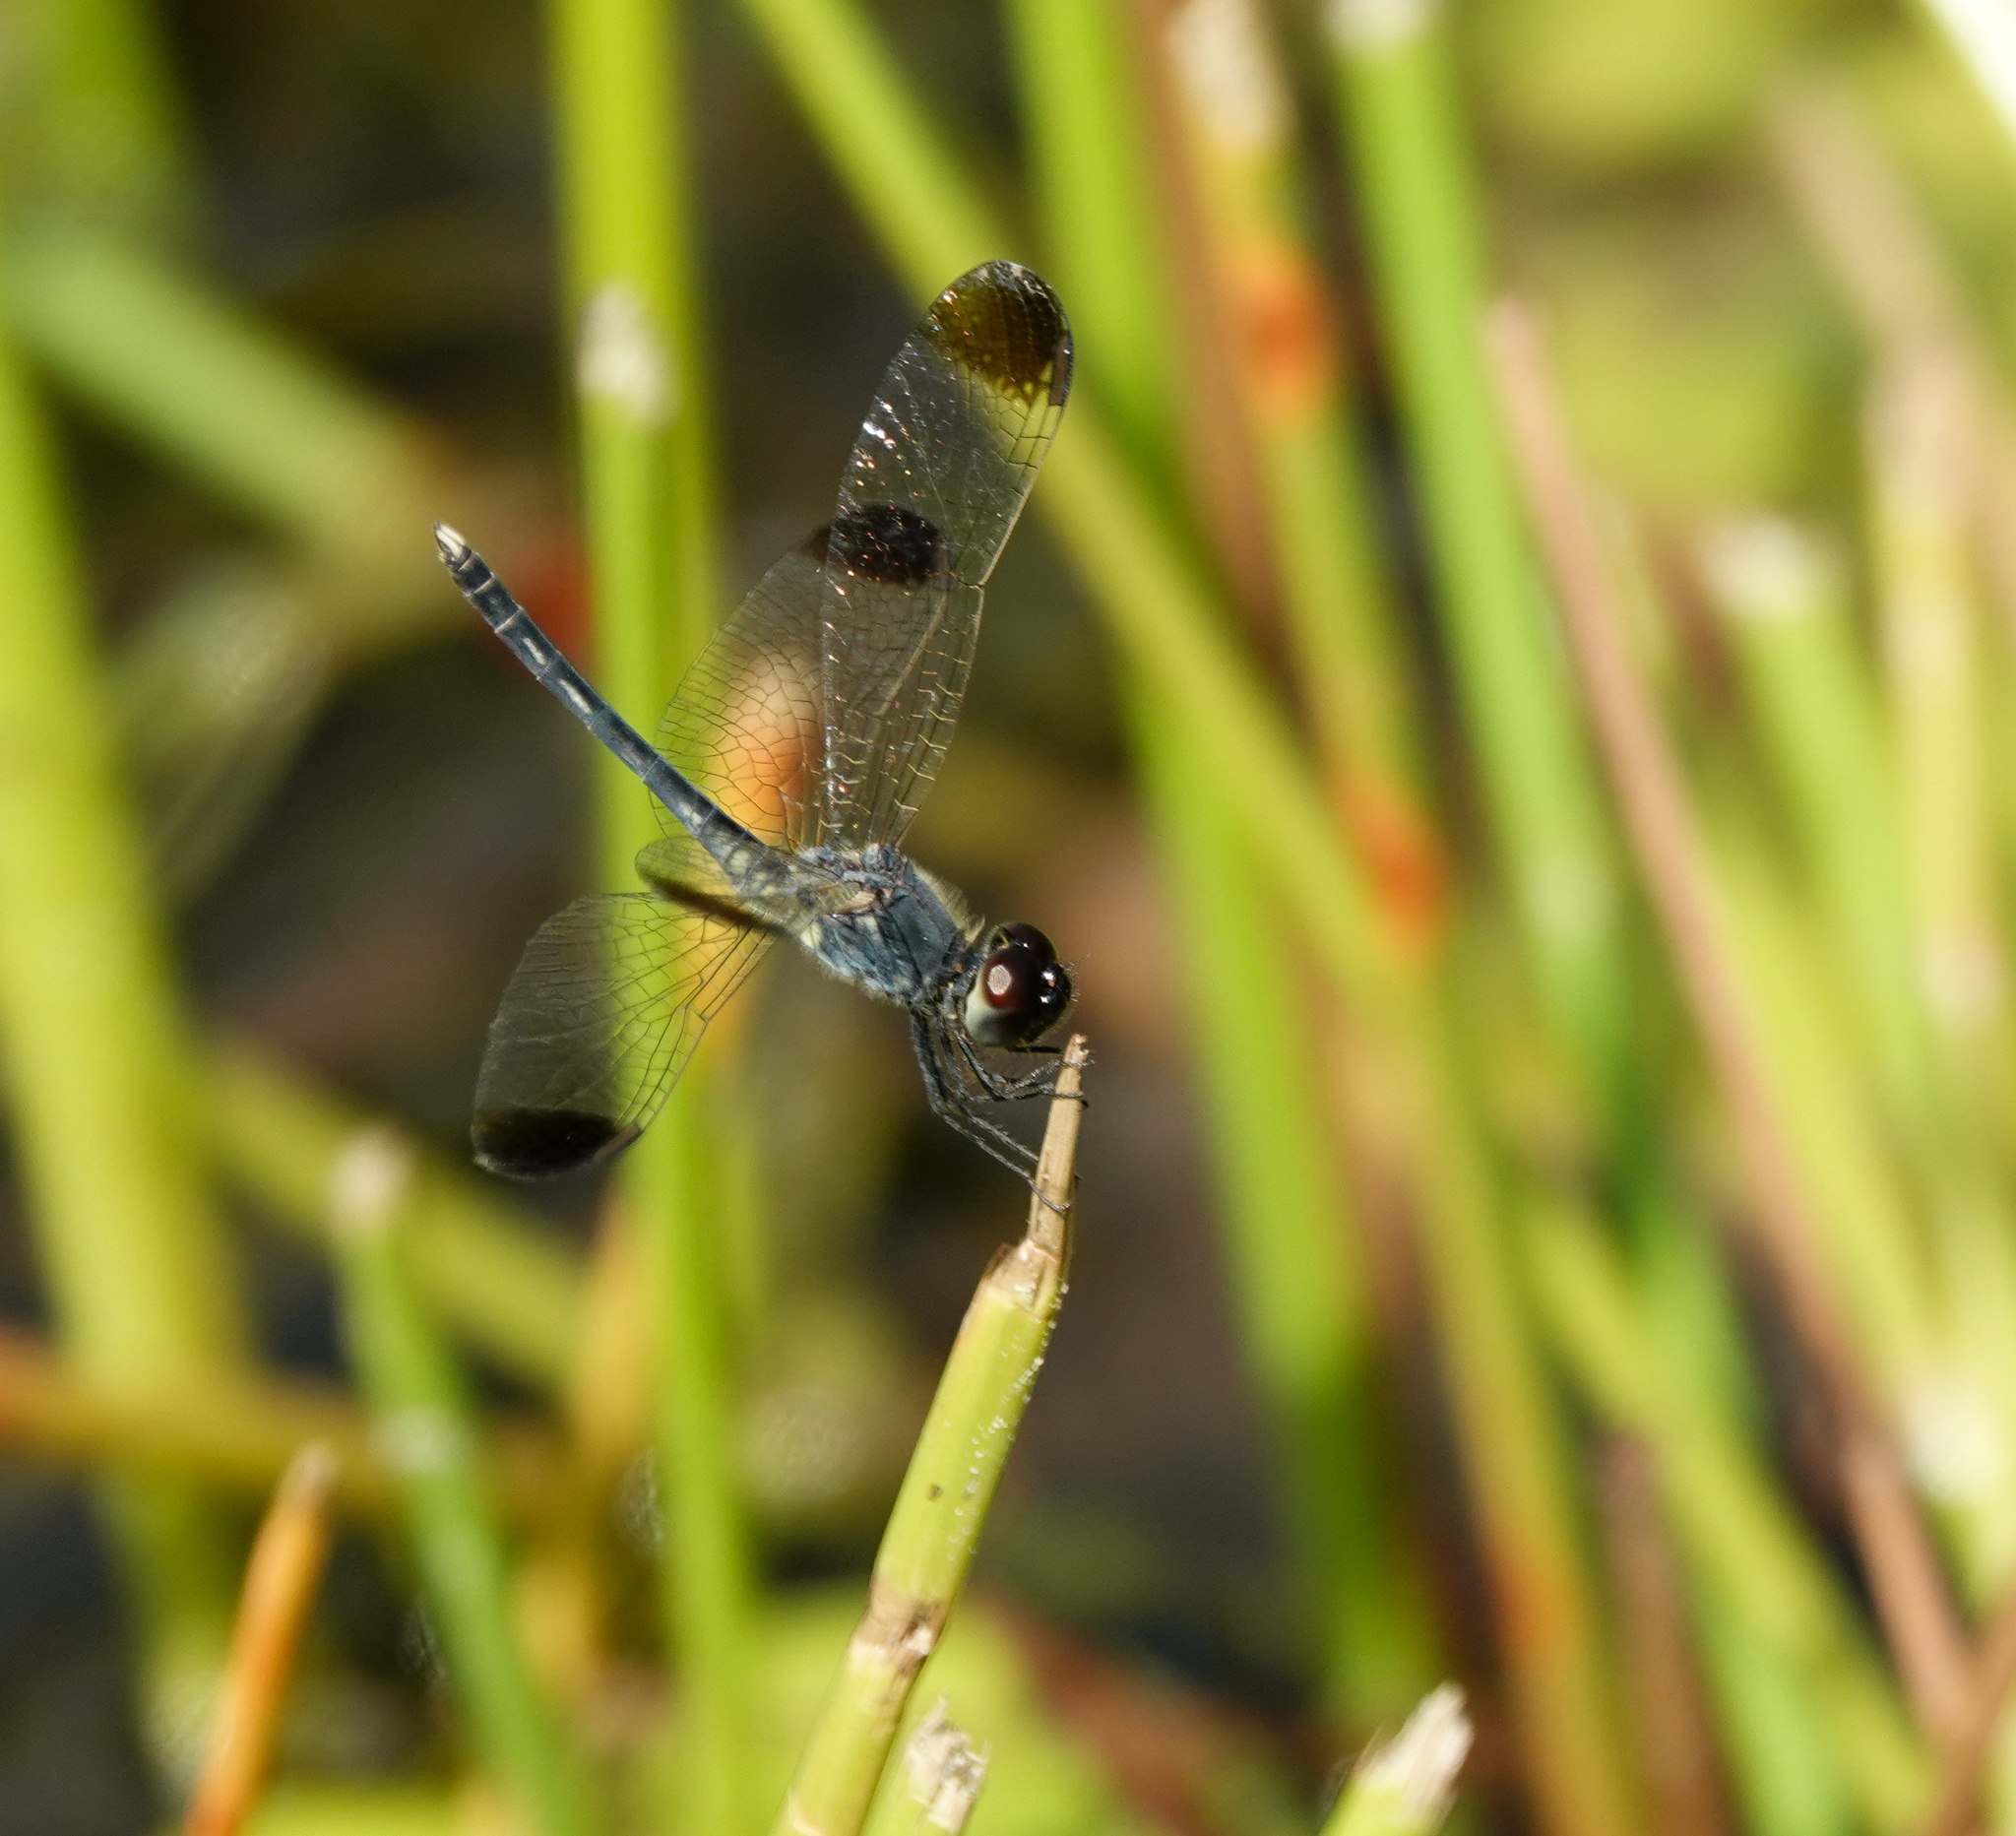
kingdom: Animalia
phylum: Arthropoda
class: Insecta
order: Odonata
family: Libellulidae
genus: Diplacodes
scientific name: Diplacodes nebulosa
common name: Black-tipped percher
